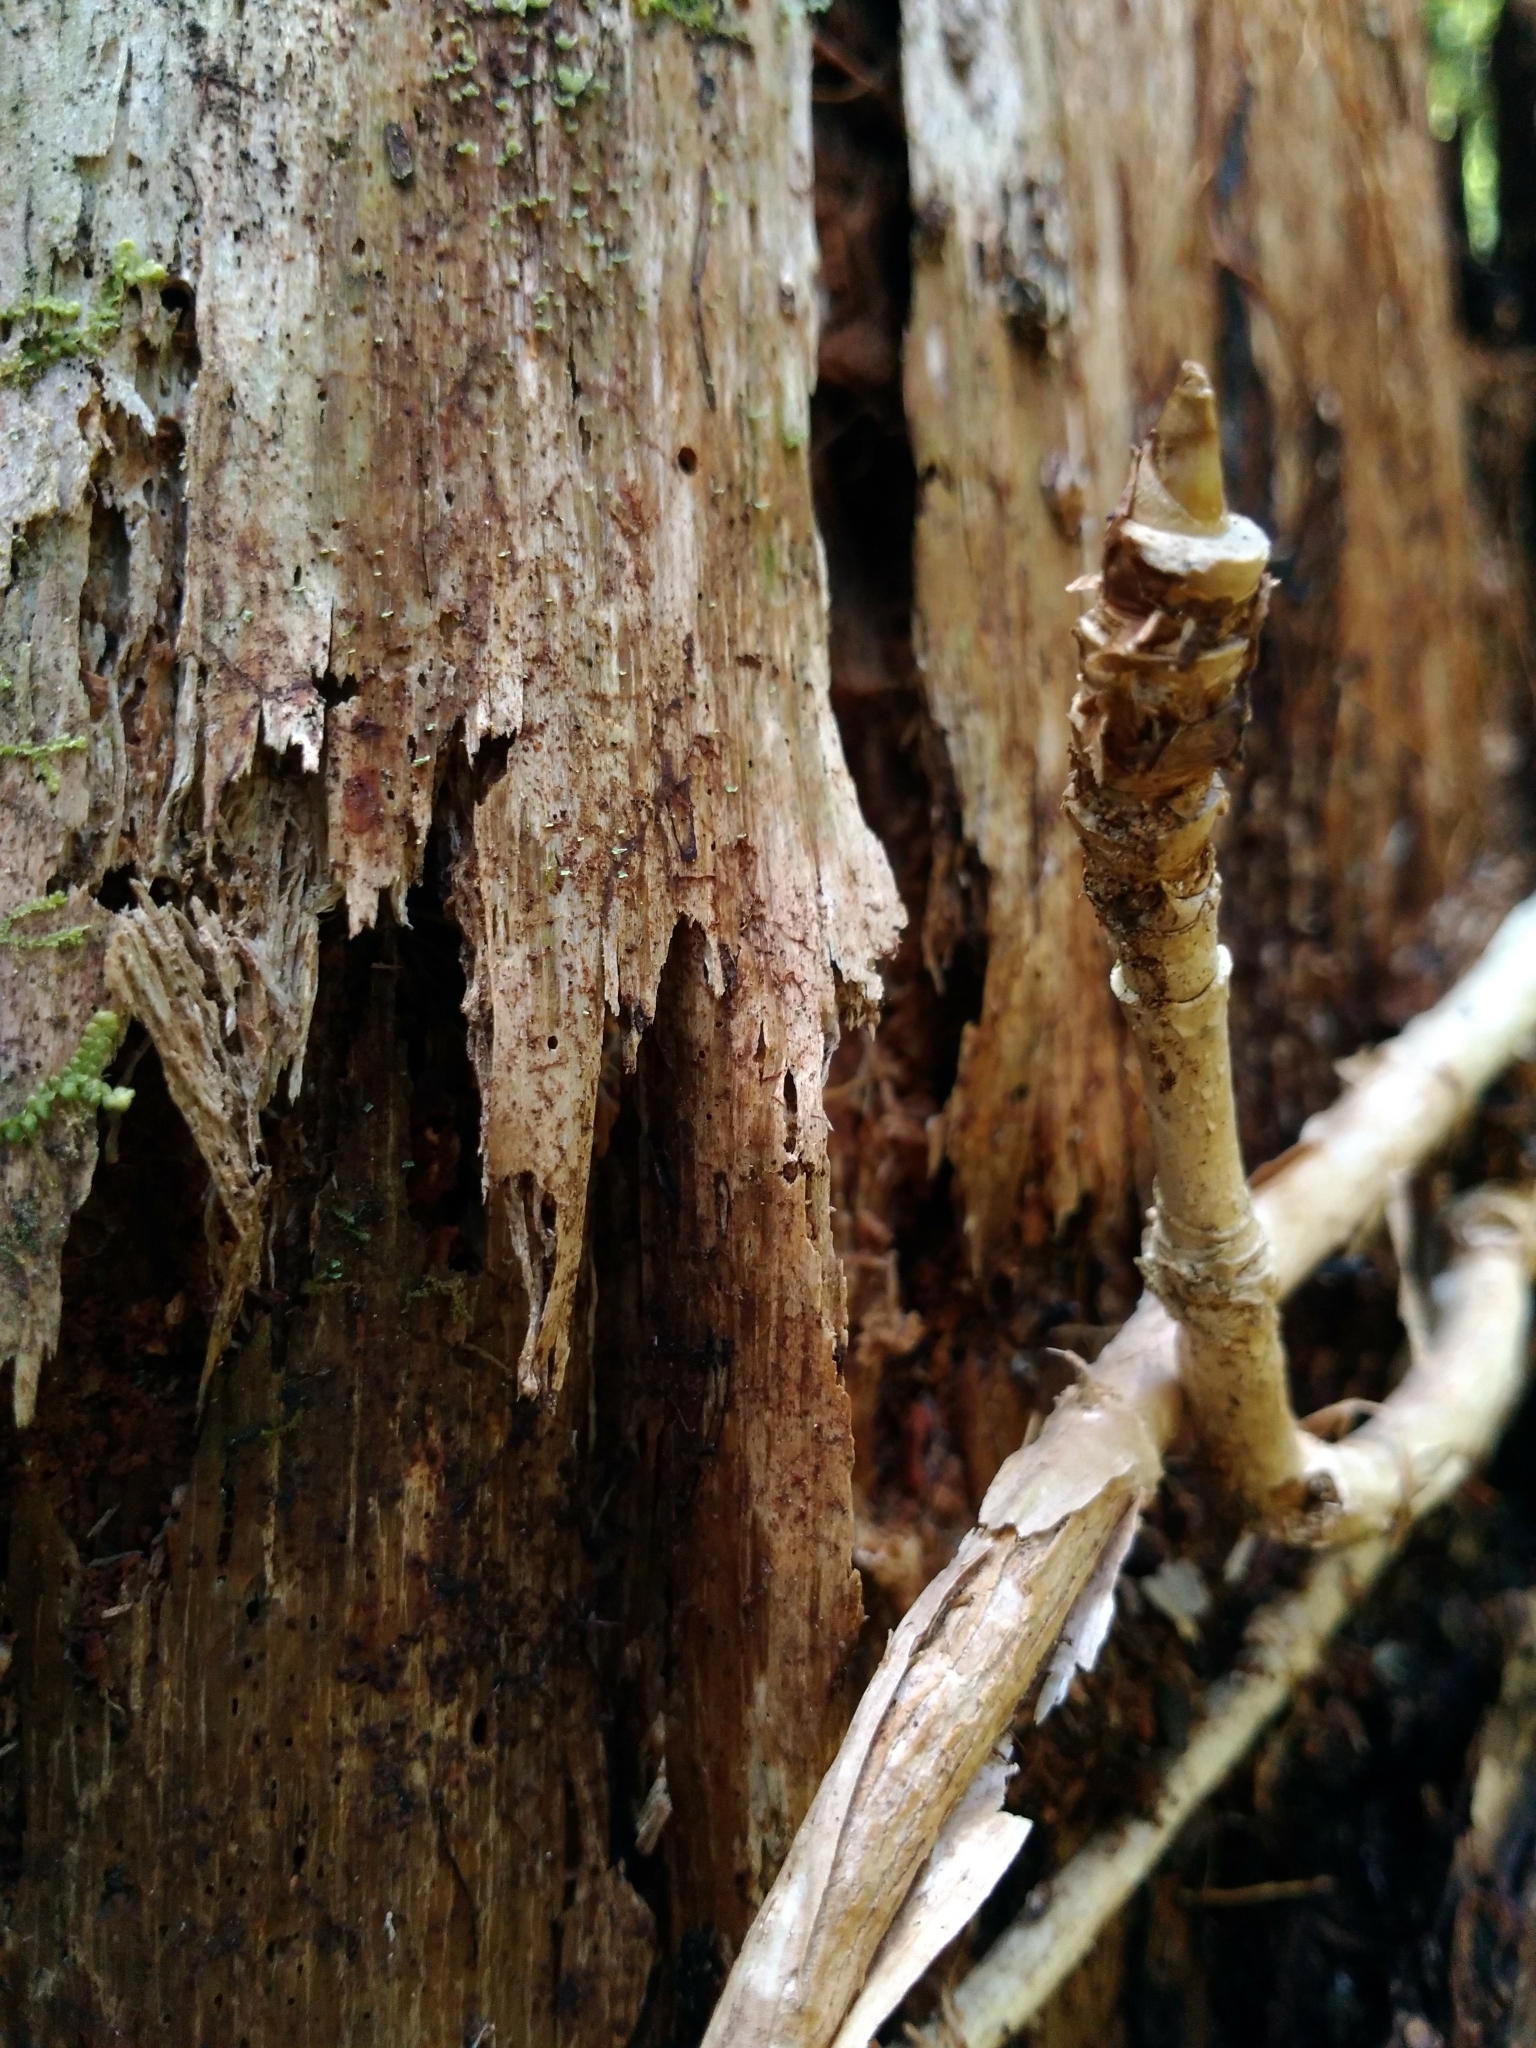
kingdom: Plantae
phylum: Tracheophyta
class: Magnoliopsida
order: Apiales
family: Araliaceae
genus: Aralia
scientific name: Aralia nudicaulis
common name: Wild sarsaparilla
